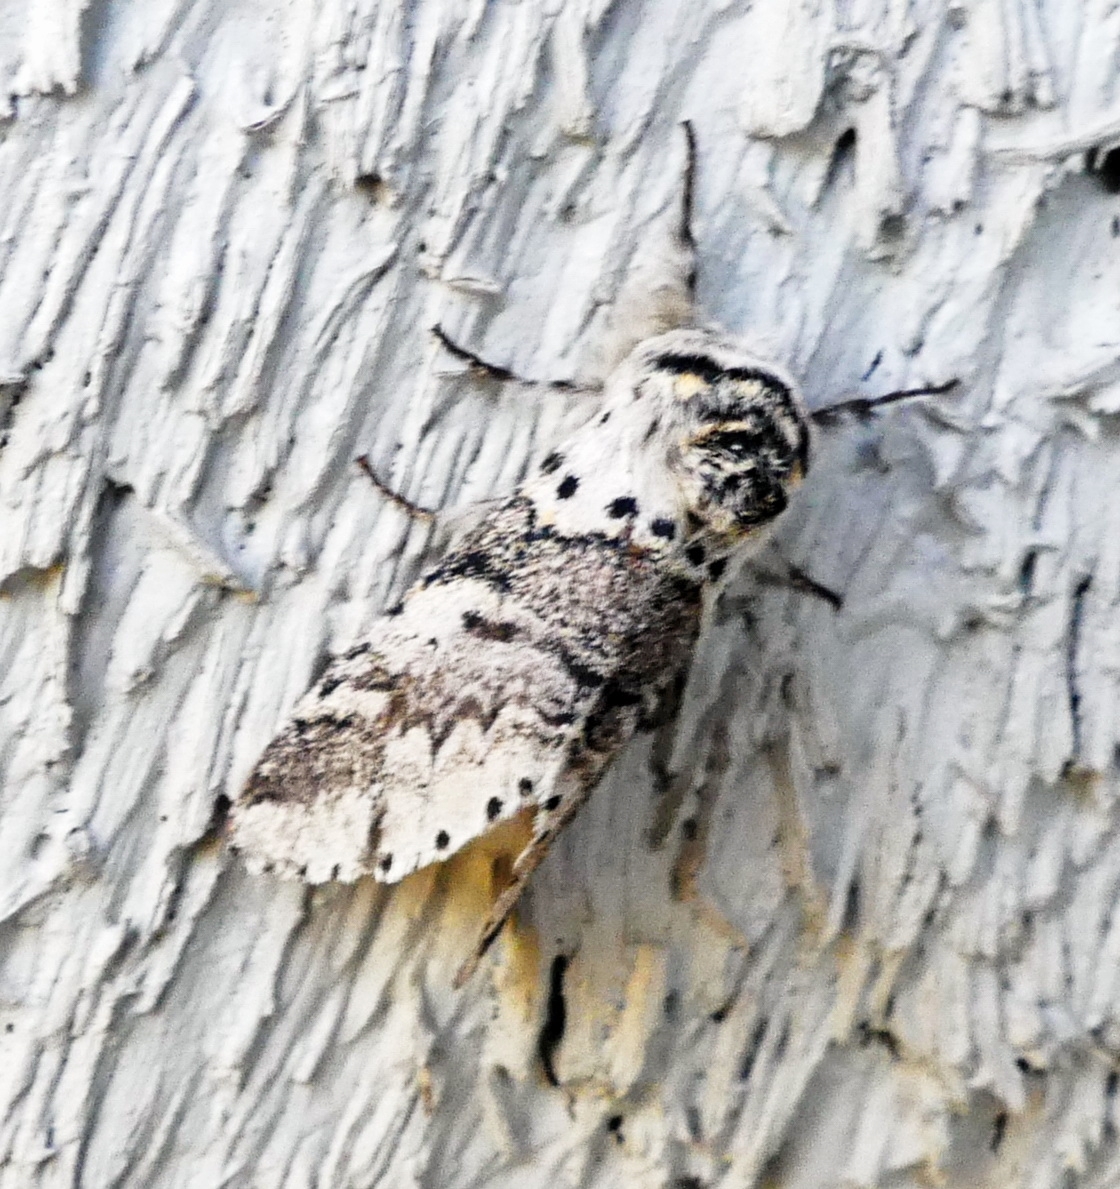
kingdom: Animalia
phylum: Arthropoda
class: Insecta
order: Lepidoptera
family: Notodontidae
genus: Furcula
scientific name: Furcula occidentalis
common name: Western furcula moth
